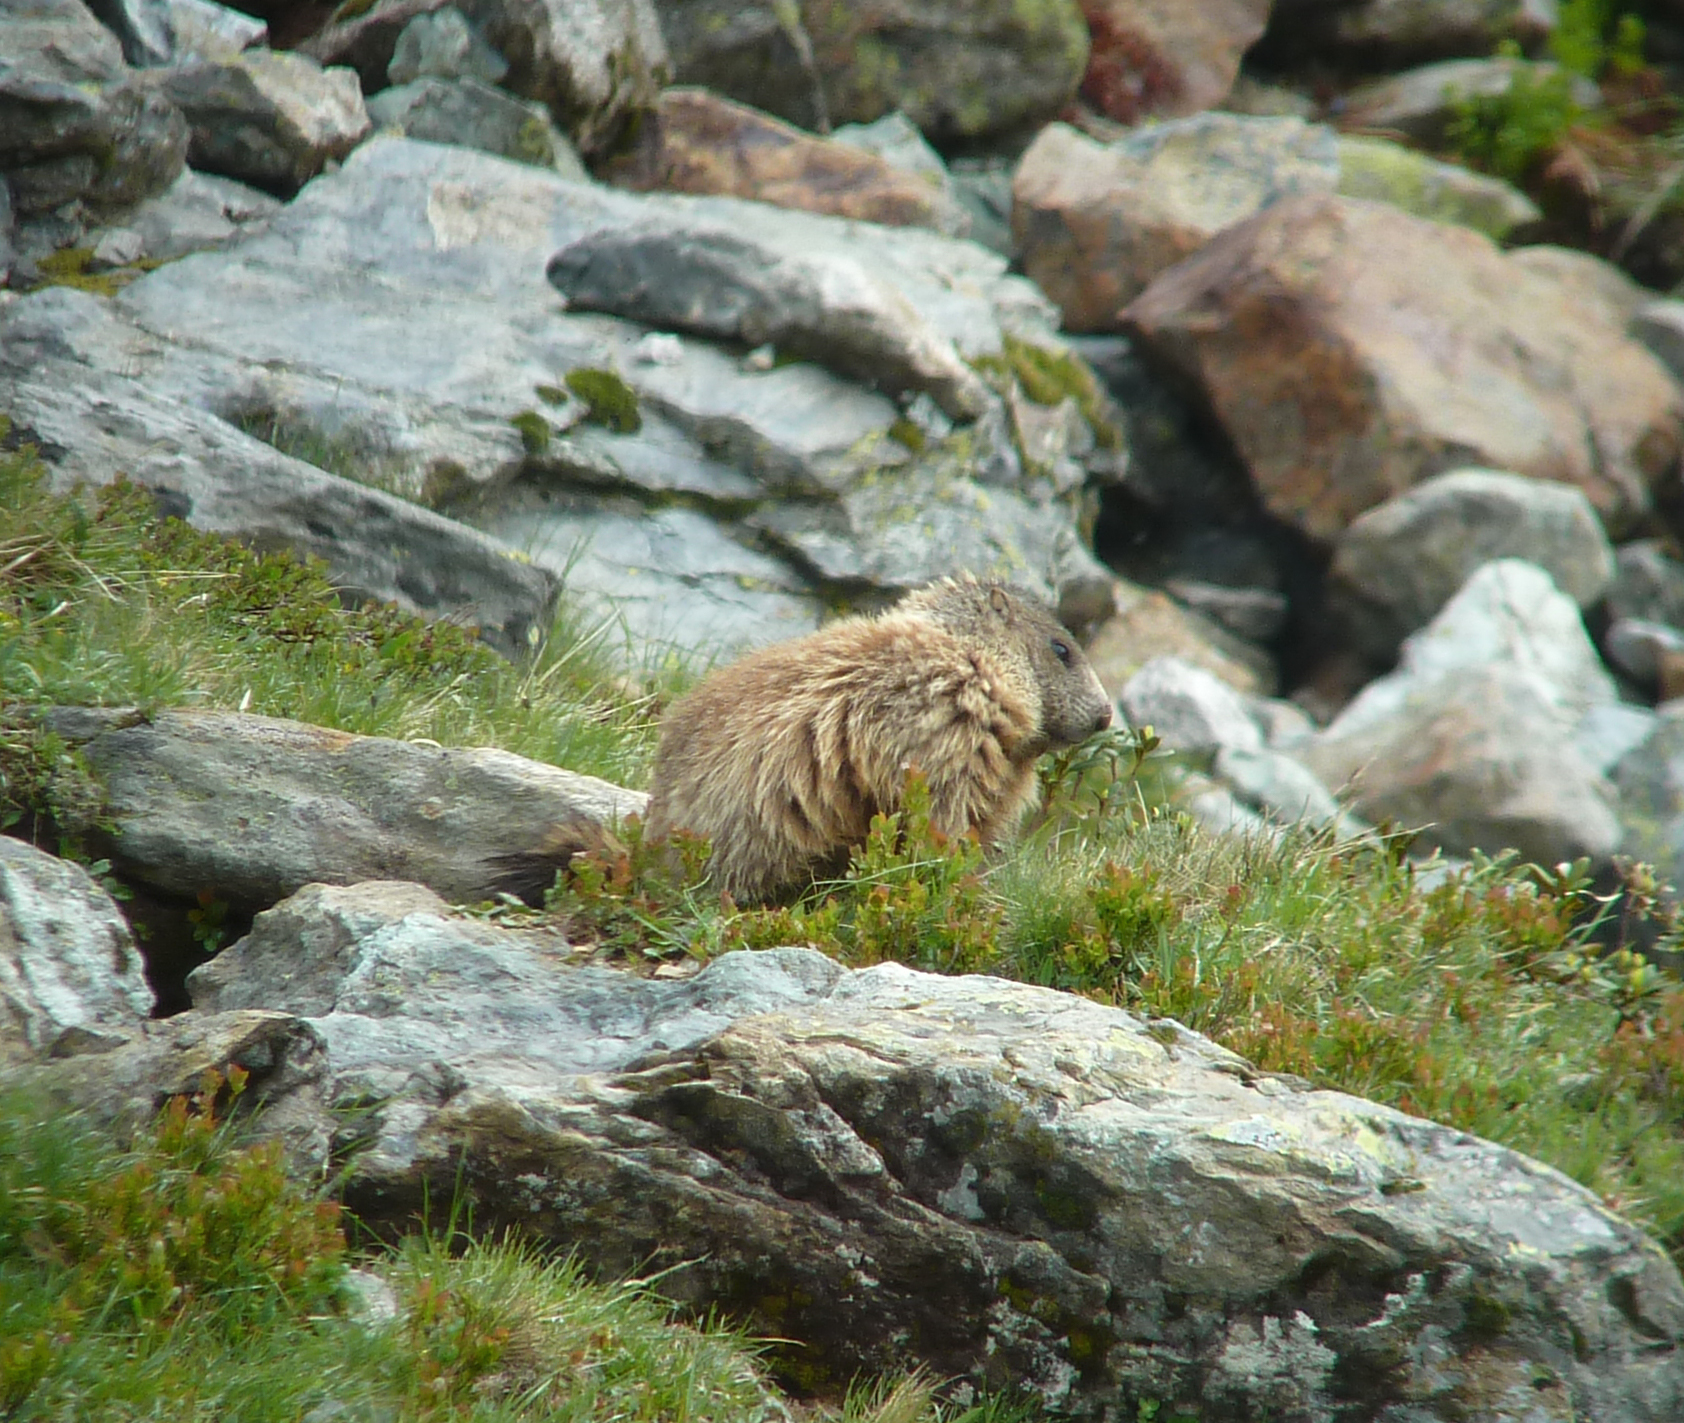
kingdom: Animalia
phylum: Chordata
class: Mammalia
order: Rodentia
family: Sciuridae
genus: Marmota
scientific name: Marmota marmota
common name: Alpine marmot
